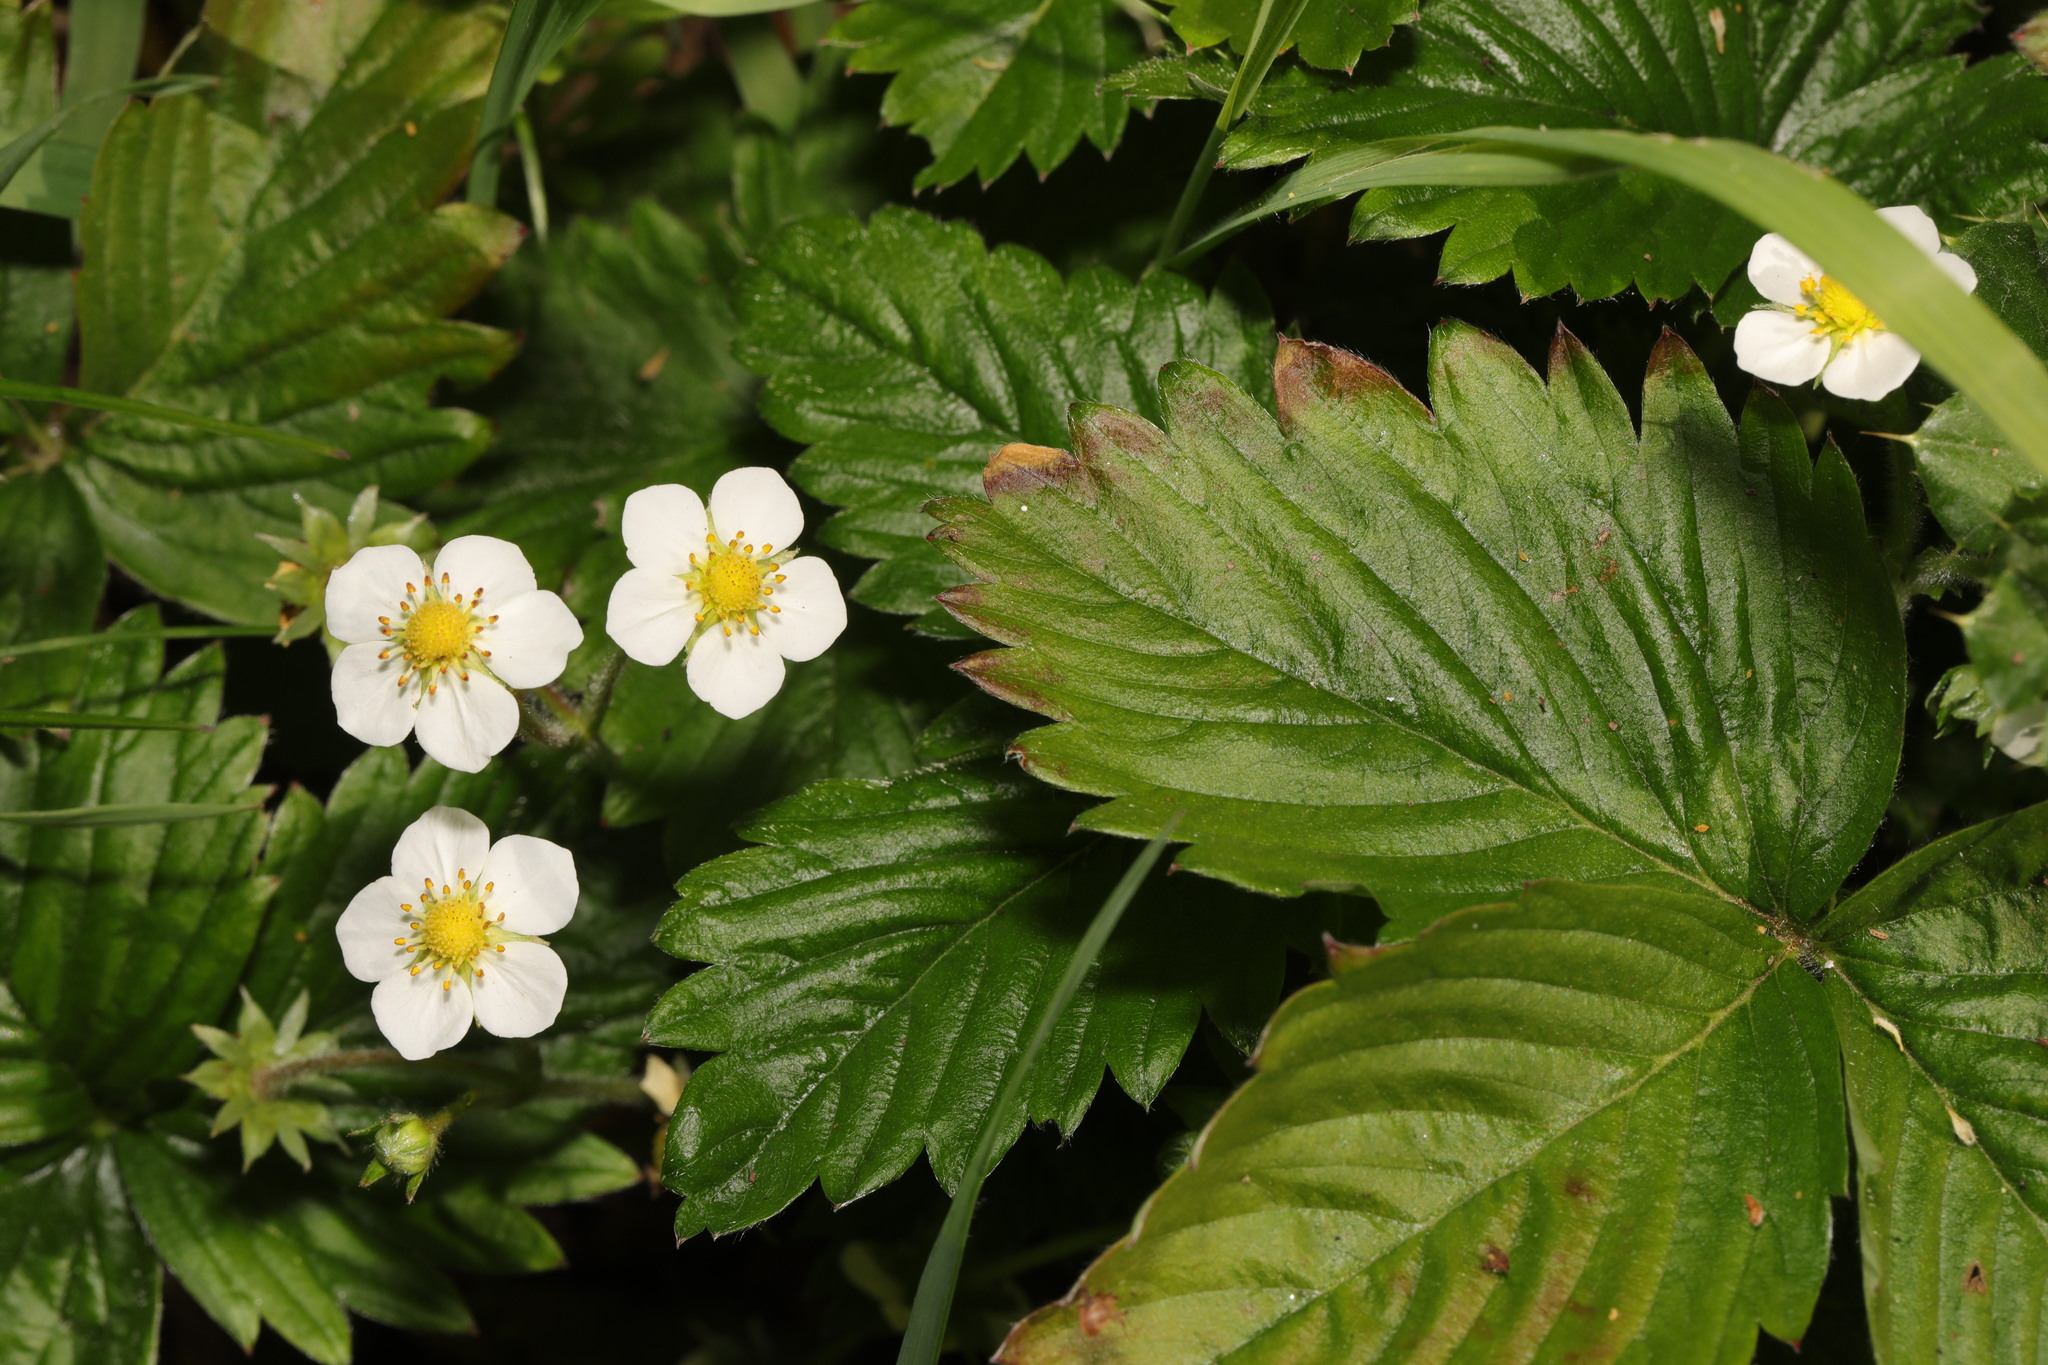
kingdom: Plantae
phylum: Tracheophyta
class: Magnoliopsida
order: Rosales
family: Rosaceae
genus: Fragaria
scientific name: Fragaria vesca
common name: Wild strawberry
